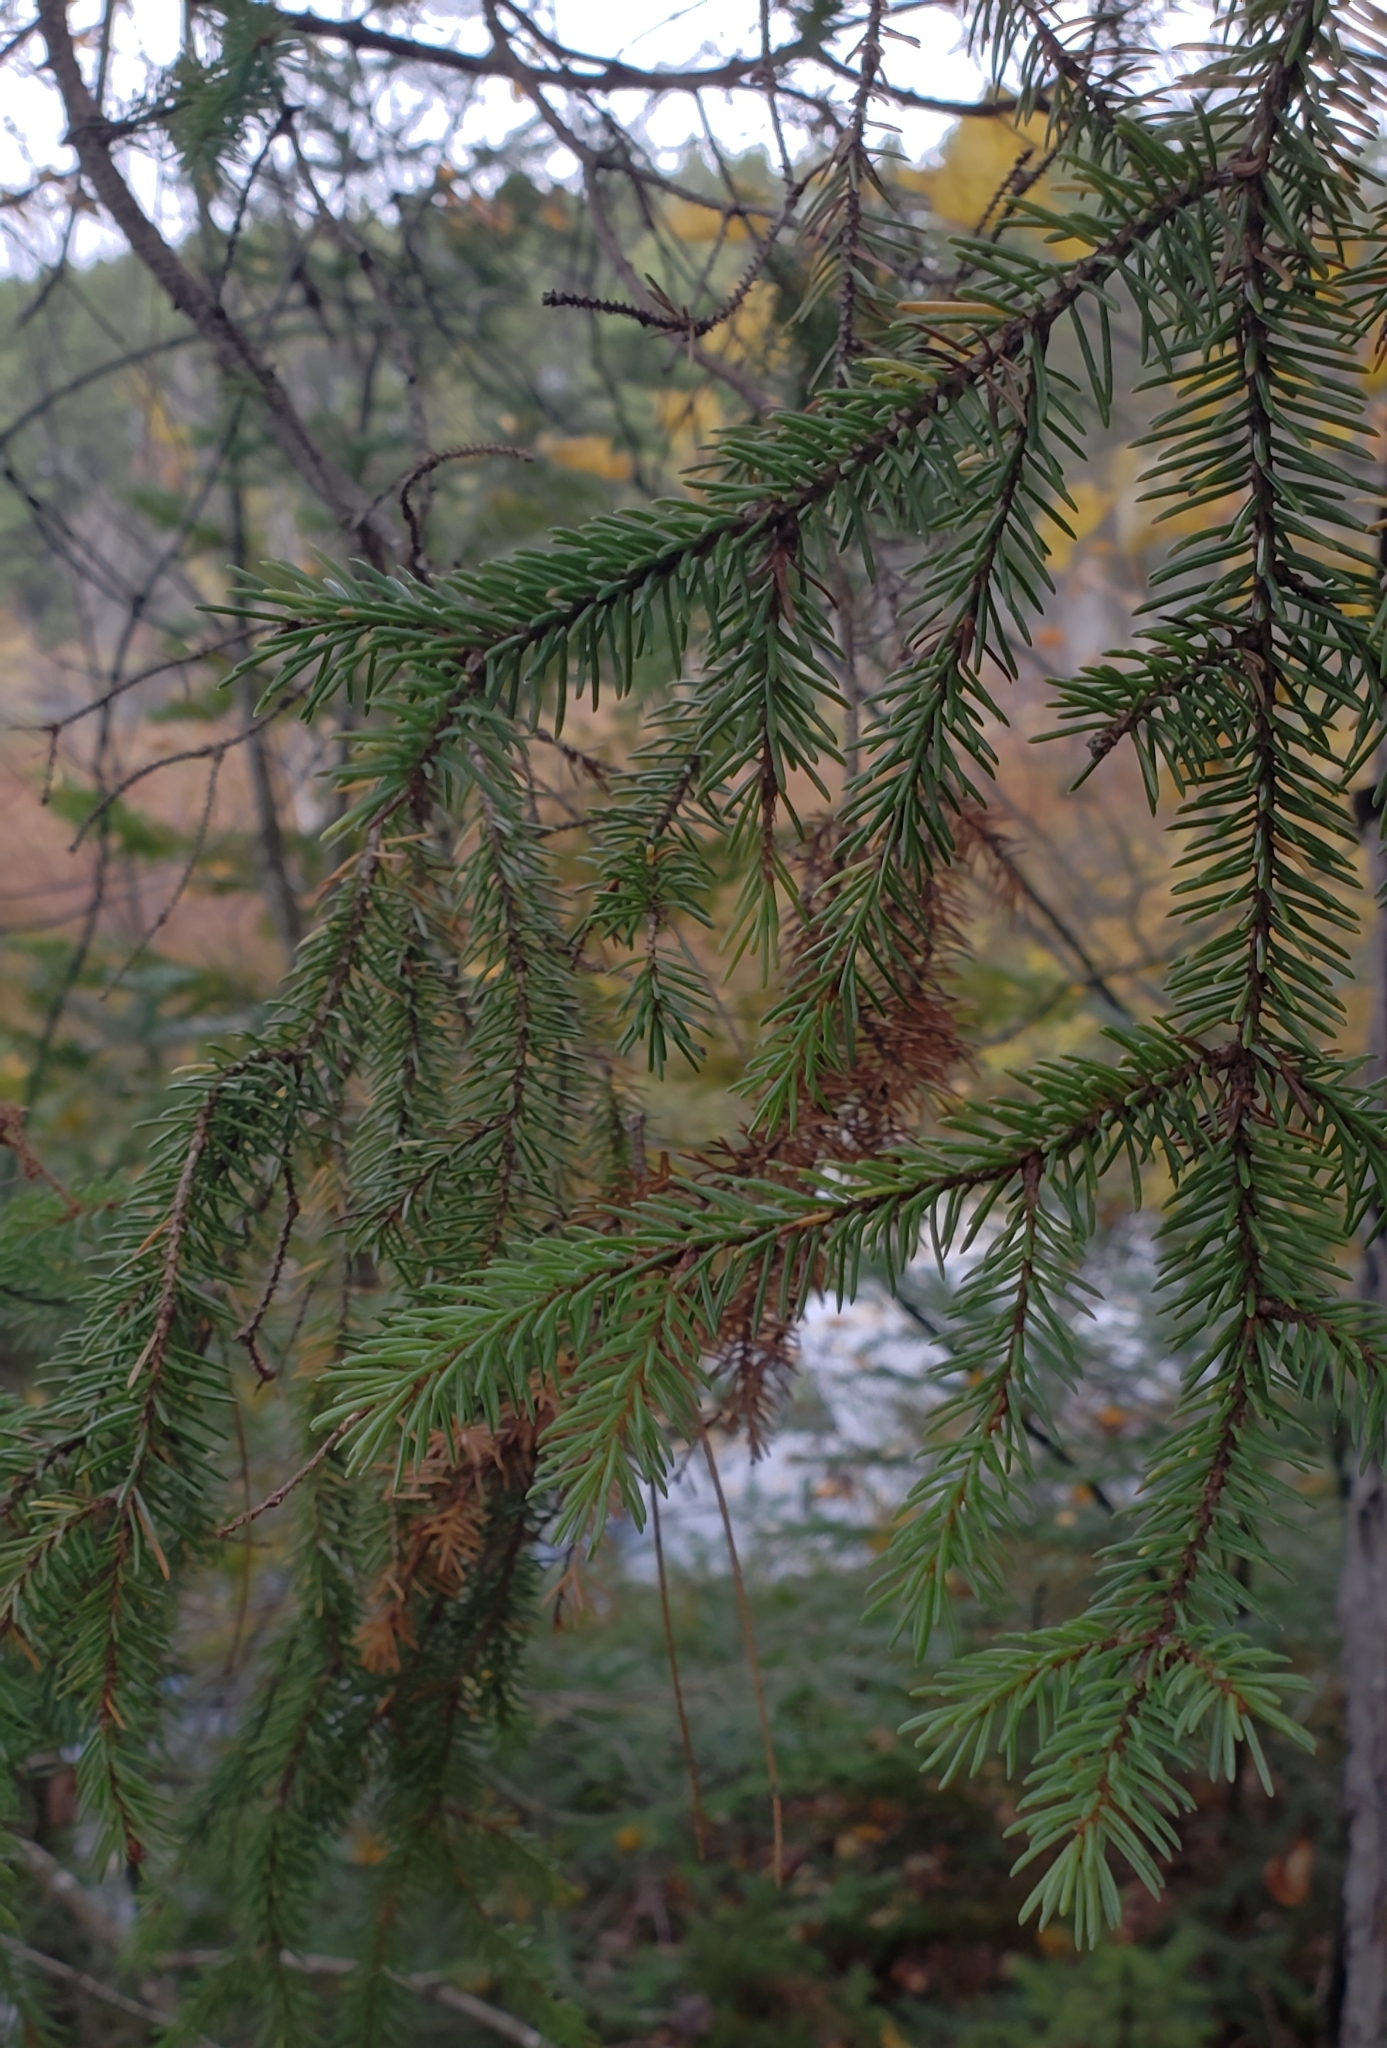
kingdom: Plantae
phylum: Tracheophyta
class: Pinopsida
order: Pinales
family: Pinaceae
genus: Picea
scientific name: Picea mariana
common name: Black spruce
